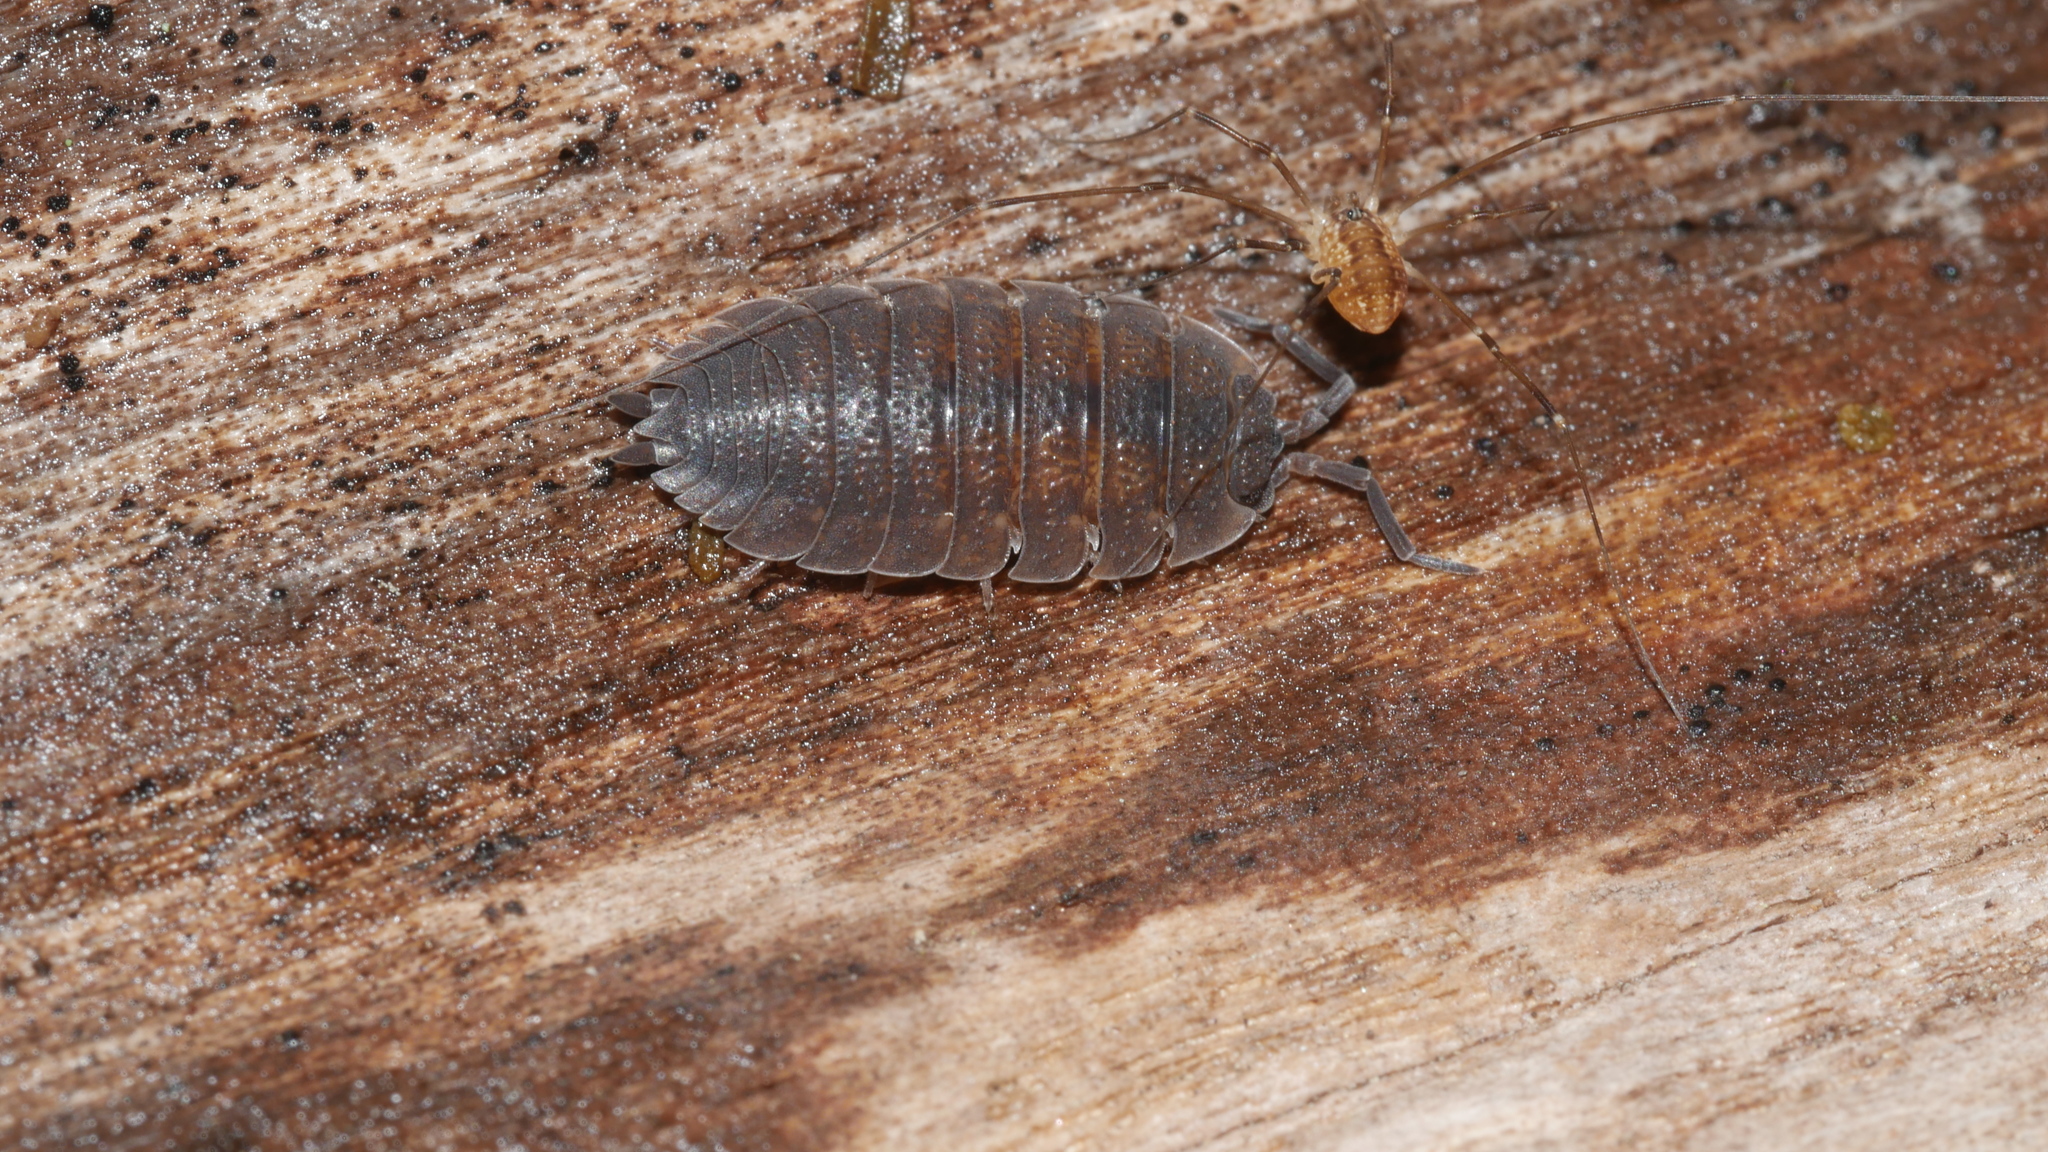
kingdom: Animalia
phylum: Arthropoda
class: Malacostraca
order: Isopoda
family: Porcellionidae
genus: Porcellio
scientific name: Porcellio scaber
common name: Common rough woodlouse
